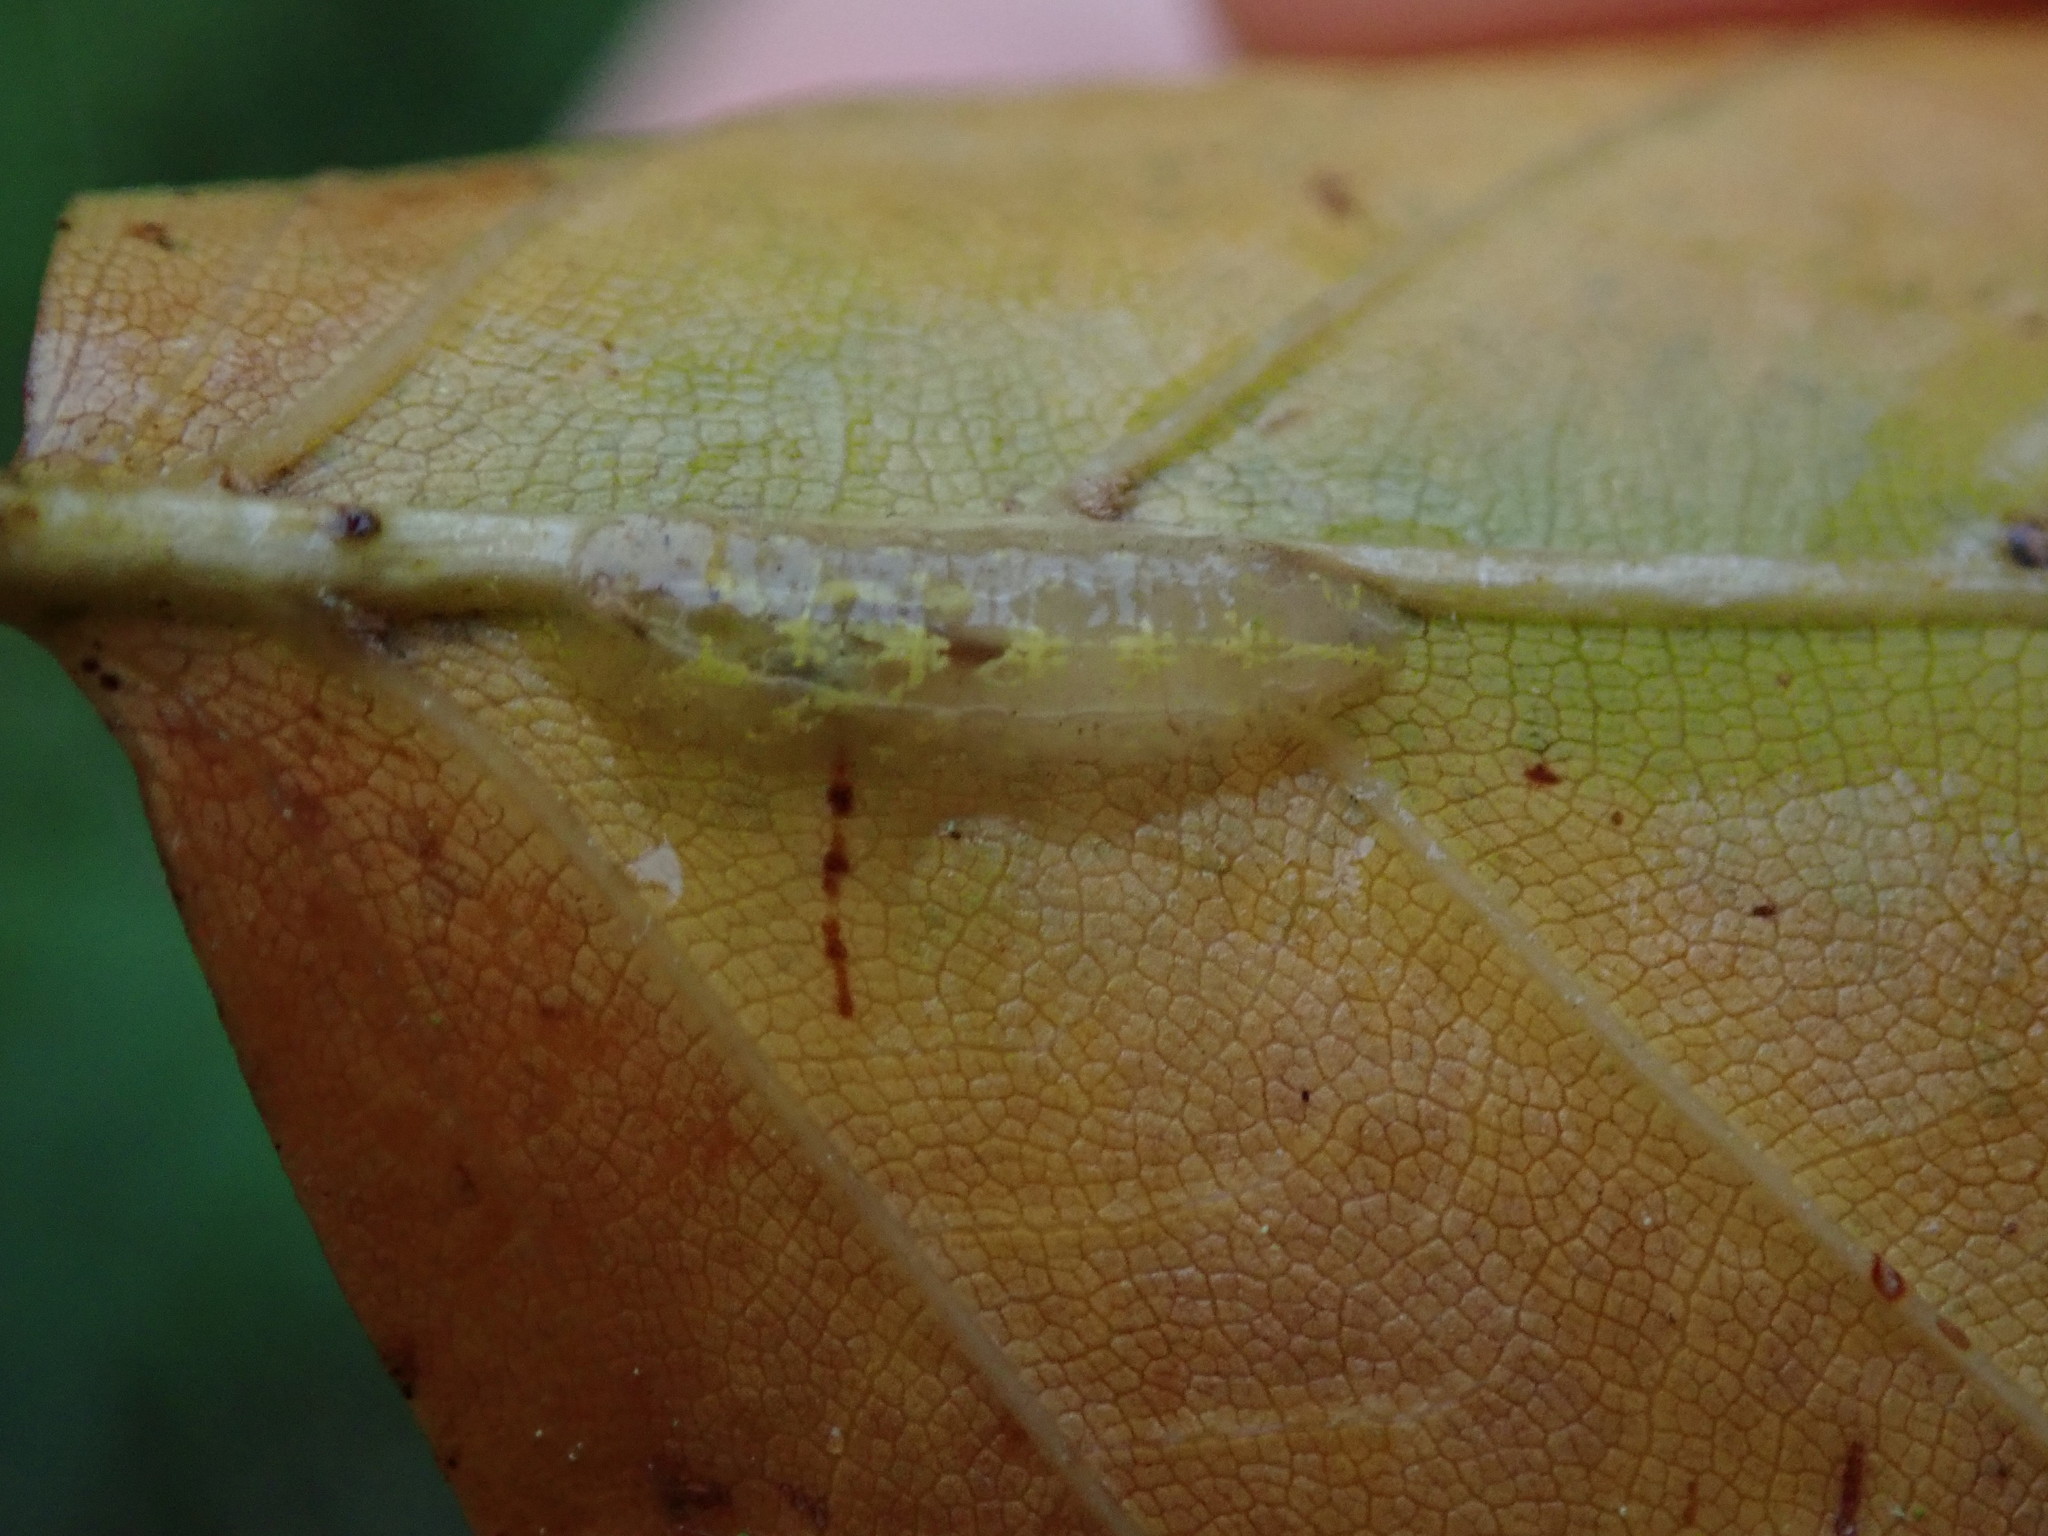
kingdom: Animalia
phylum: Arthropoda
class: Insecta
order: Diptera
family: Syrphidae
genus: Fagisyrphus
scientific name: Fagisyrphus cincta
